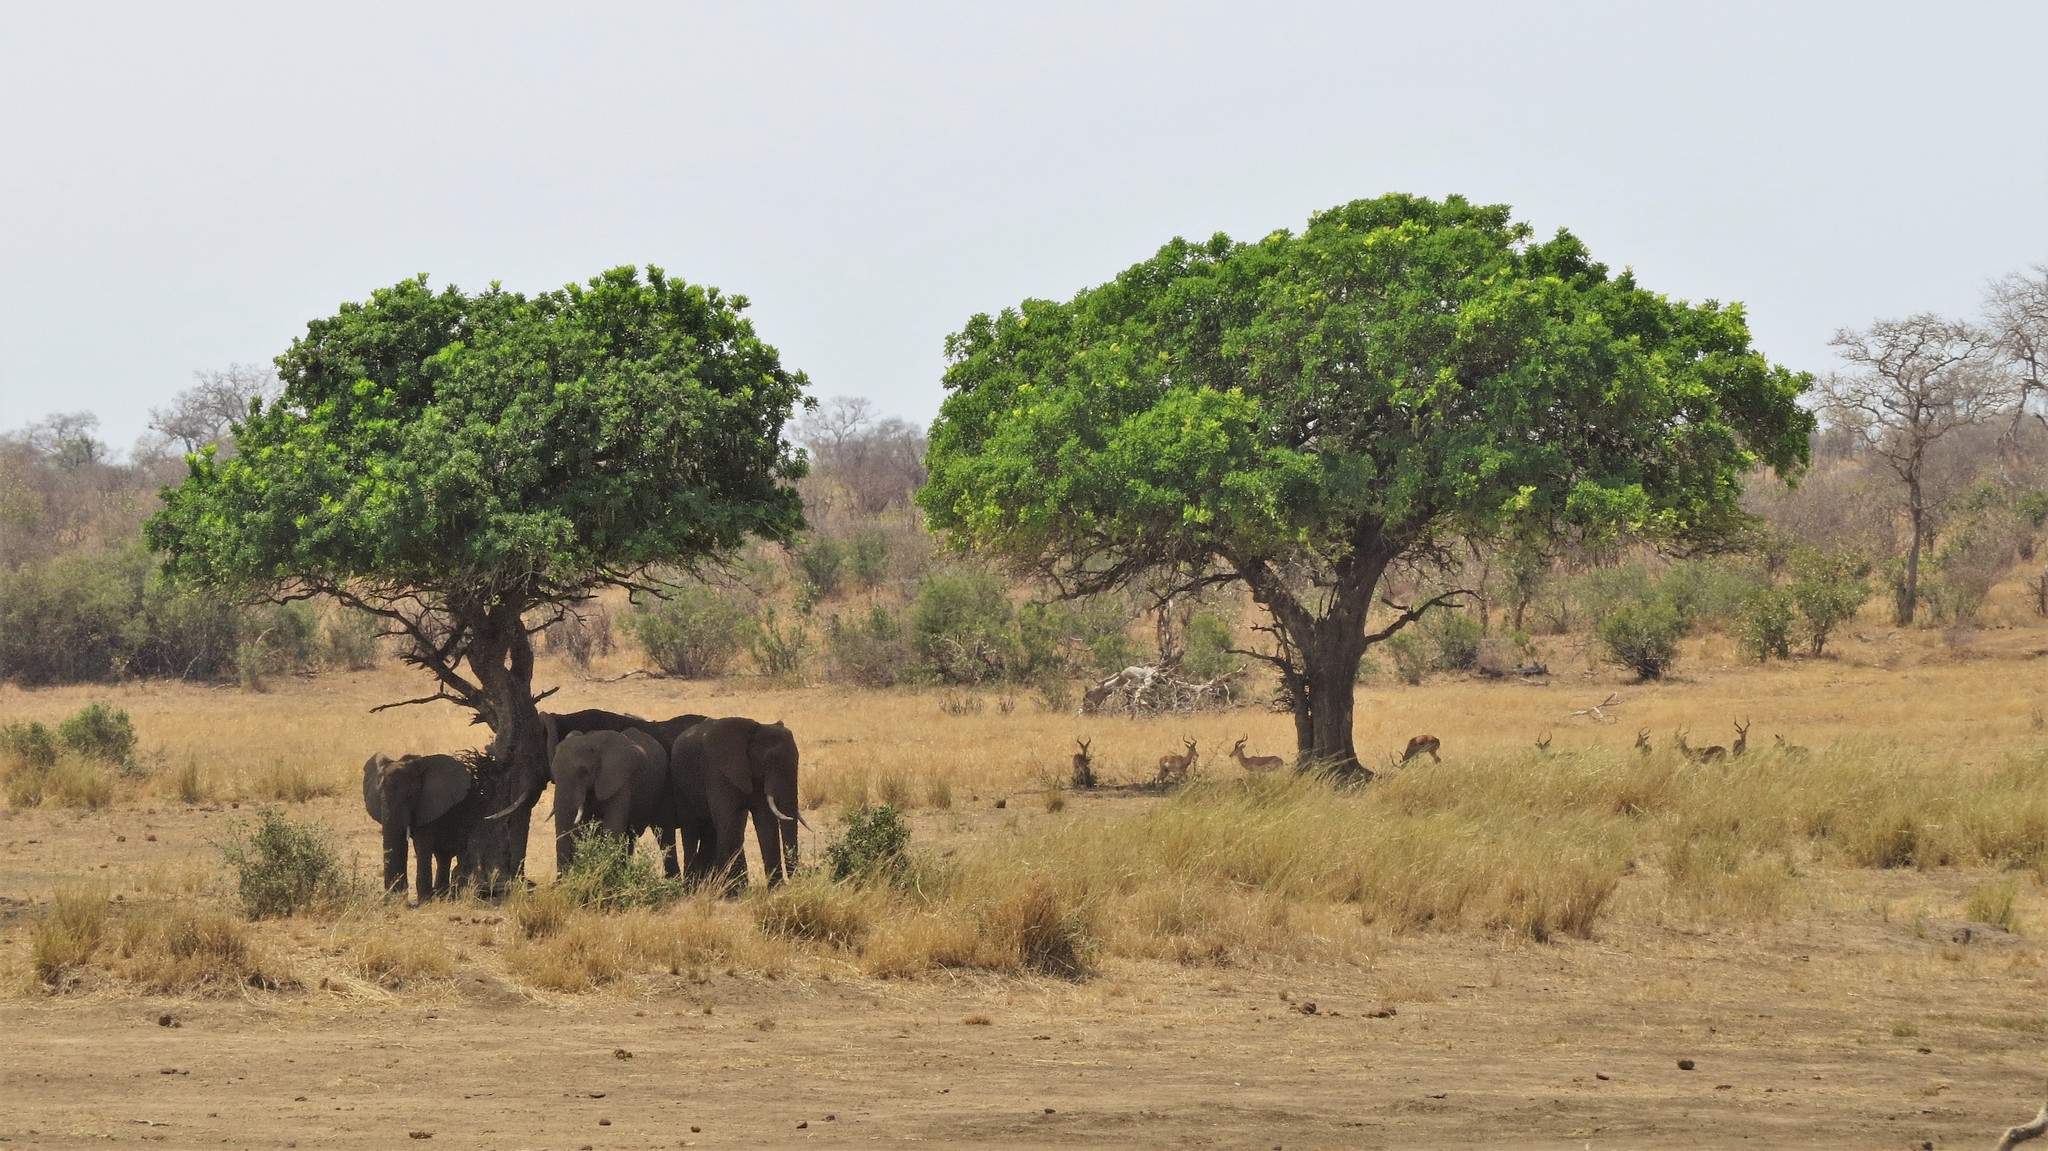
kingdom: Animalia
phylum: Chordata
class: Mammalia
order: Proboscidea
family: Elephantidae
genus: Loxodonta
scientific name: Loxodonta africana
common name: African elephant
